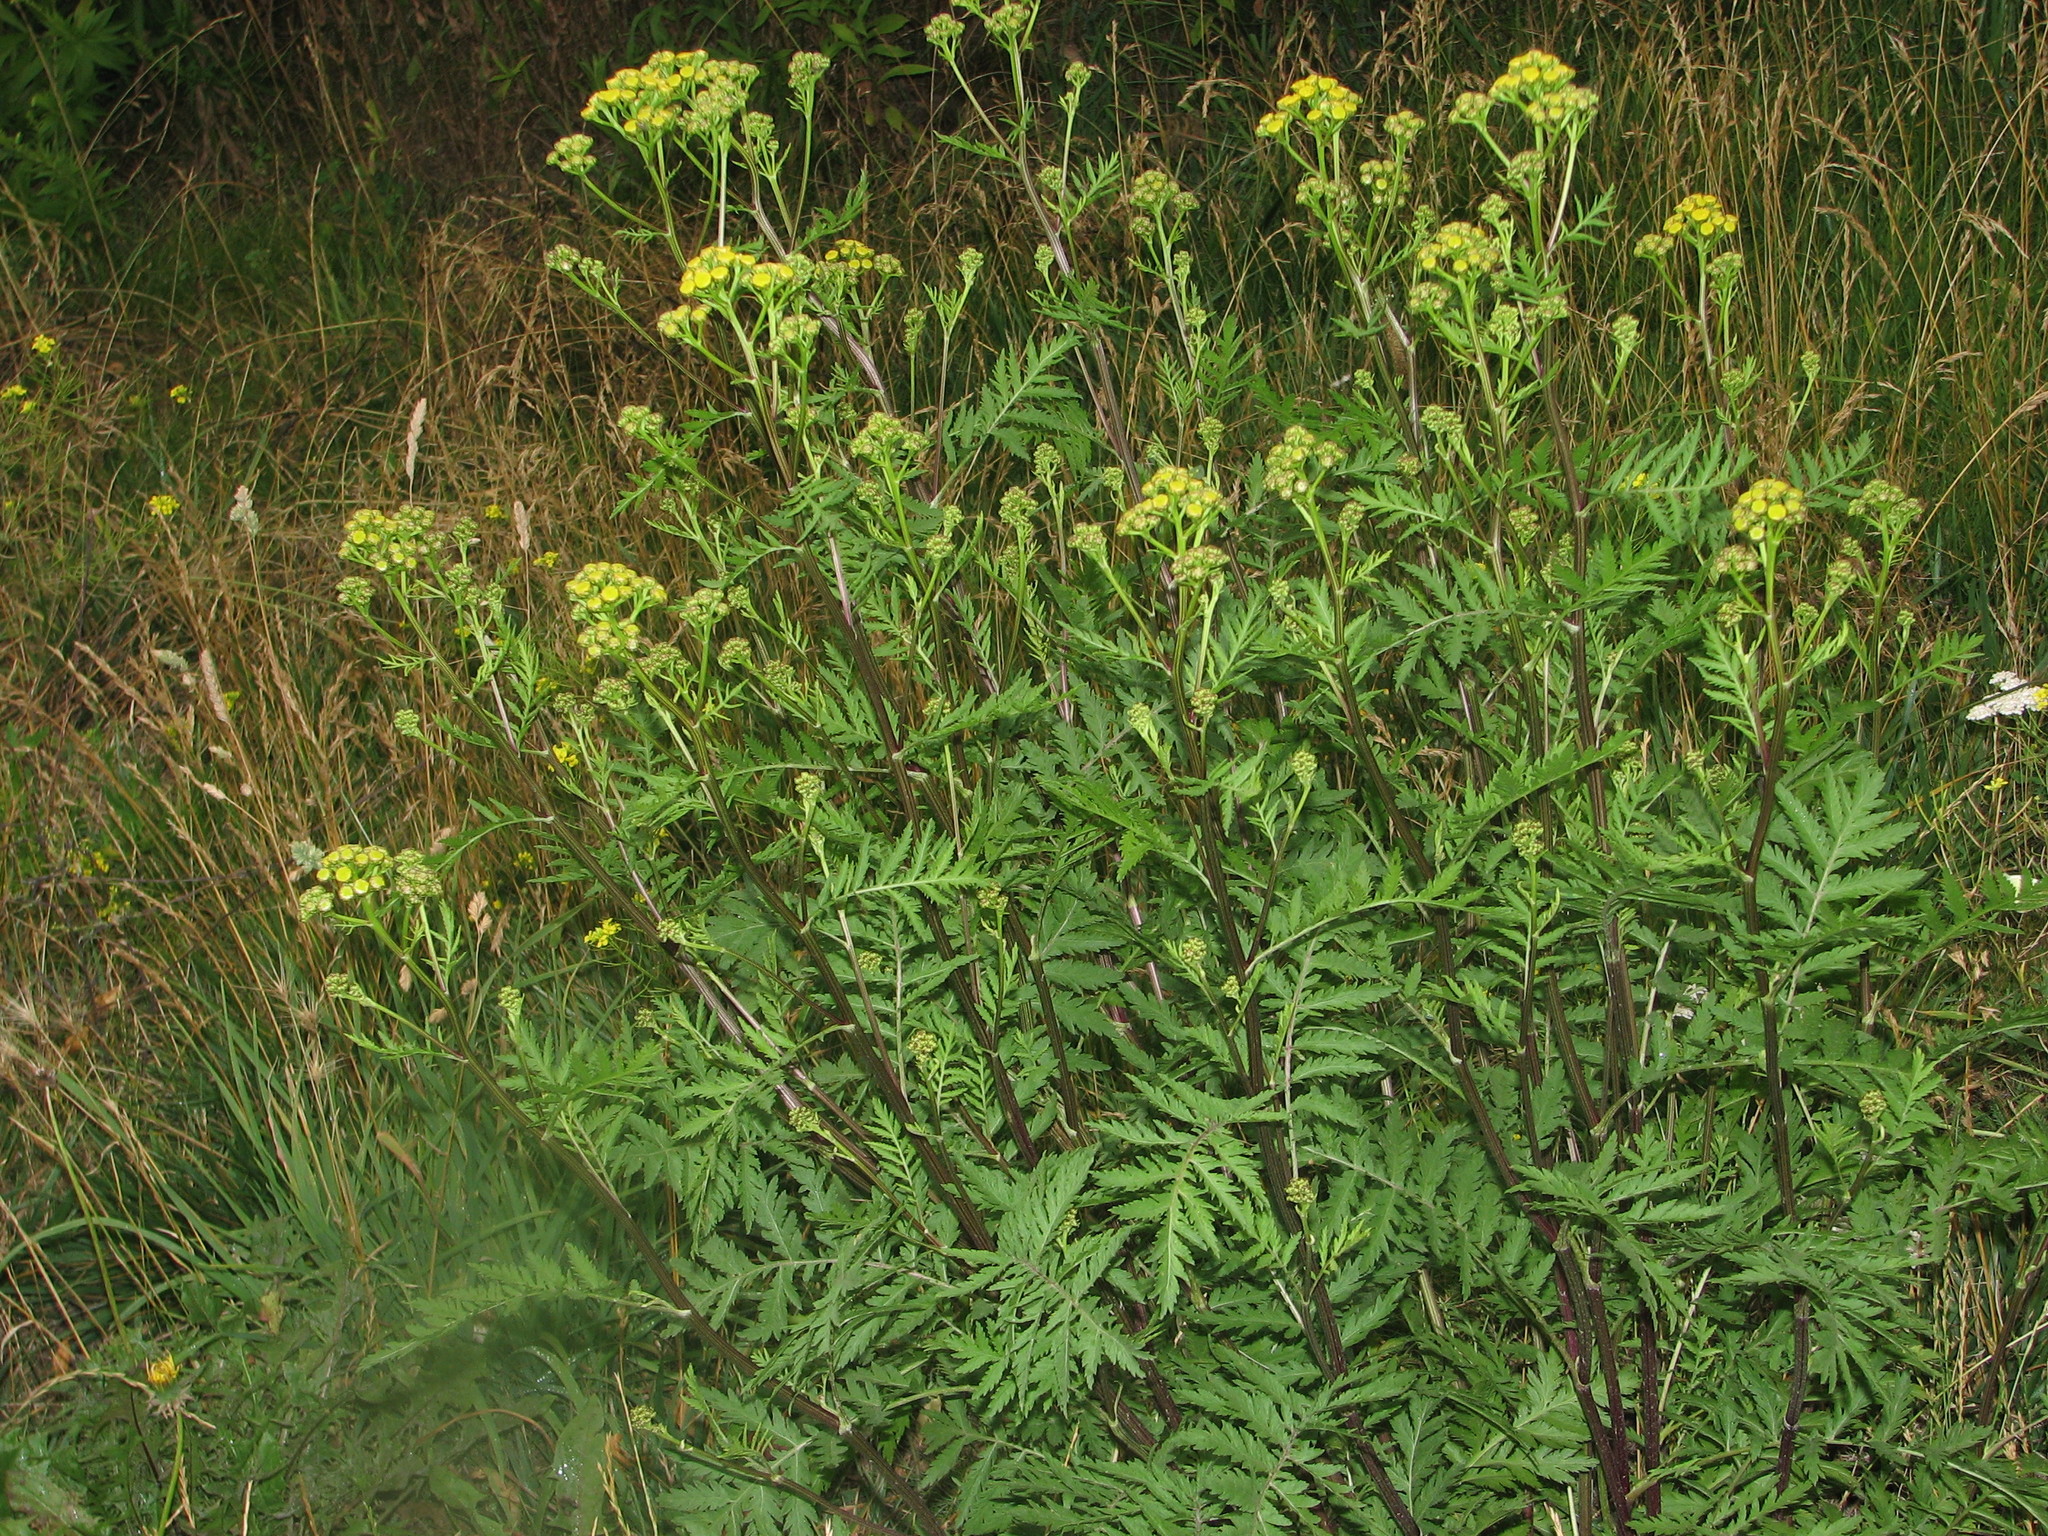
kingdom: Plantae
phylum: Tracheophyta
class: Magnoliopsida
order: Asterales
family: Asteraceae
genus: Tanacetum
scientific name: Tanacetum vulgare
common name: Common tansy
